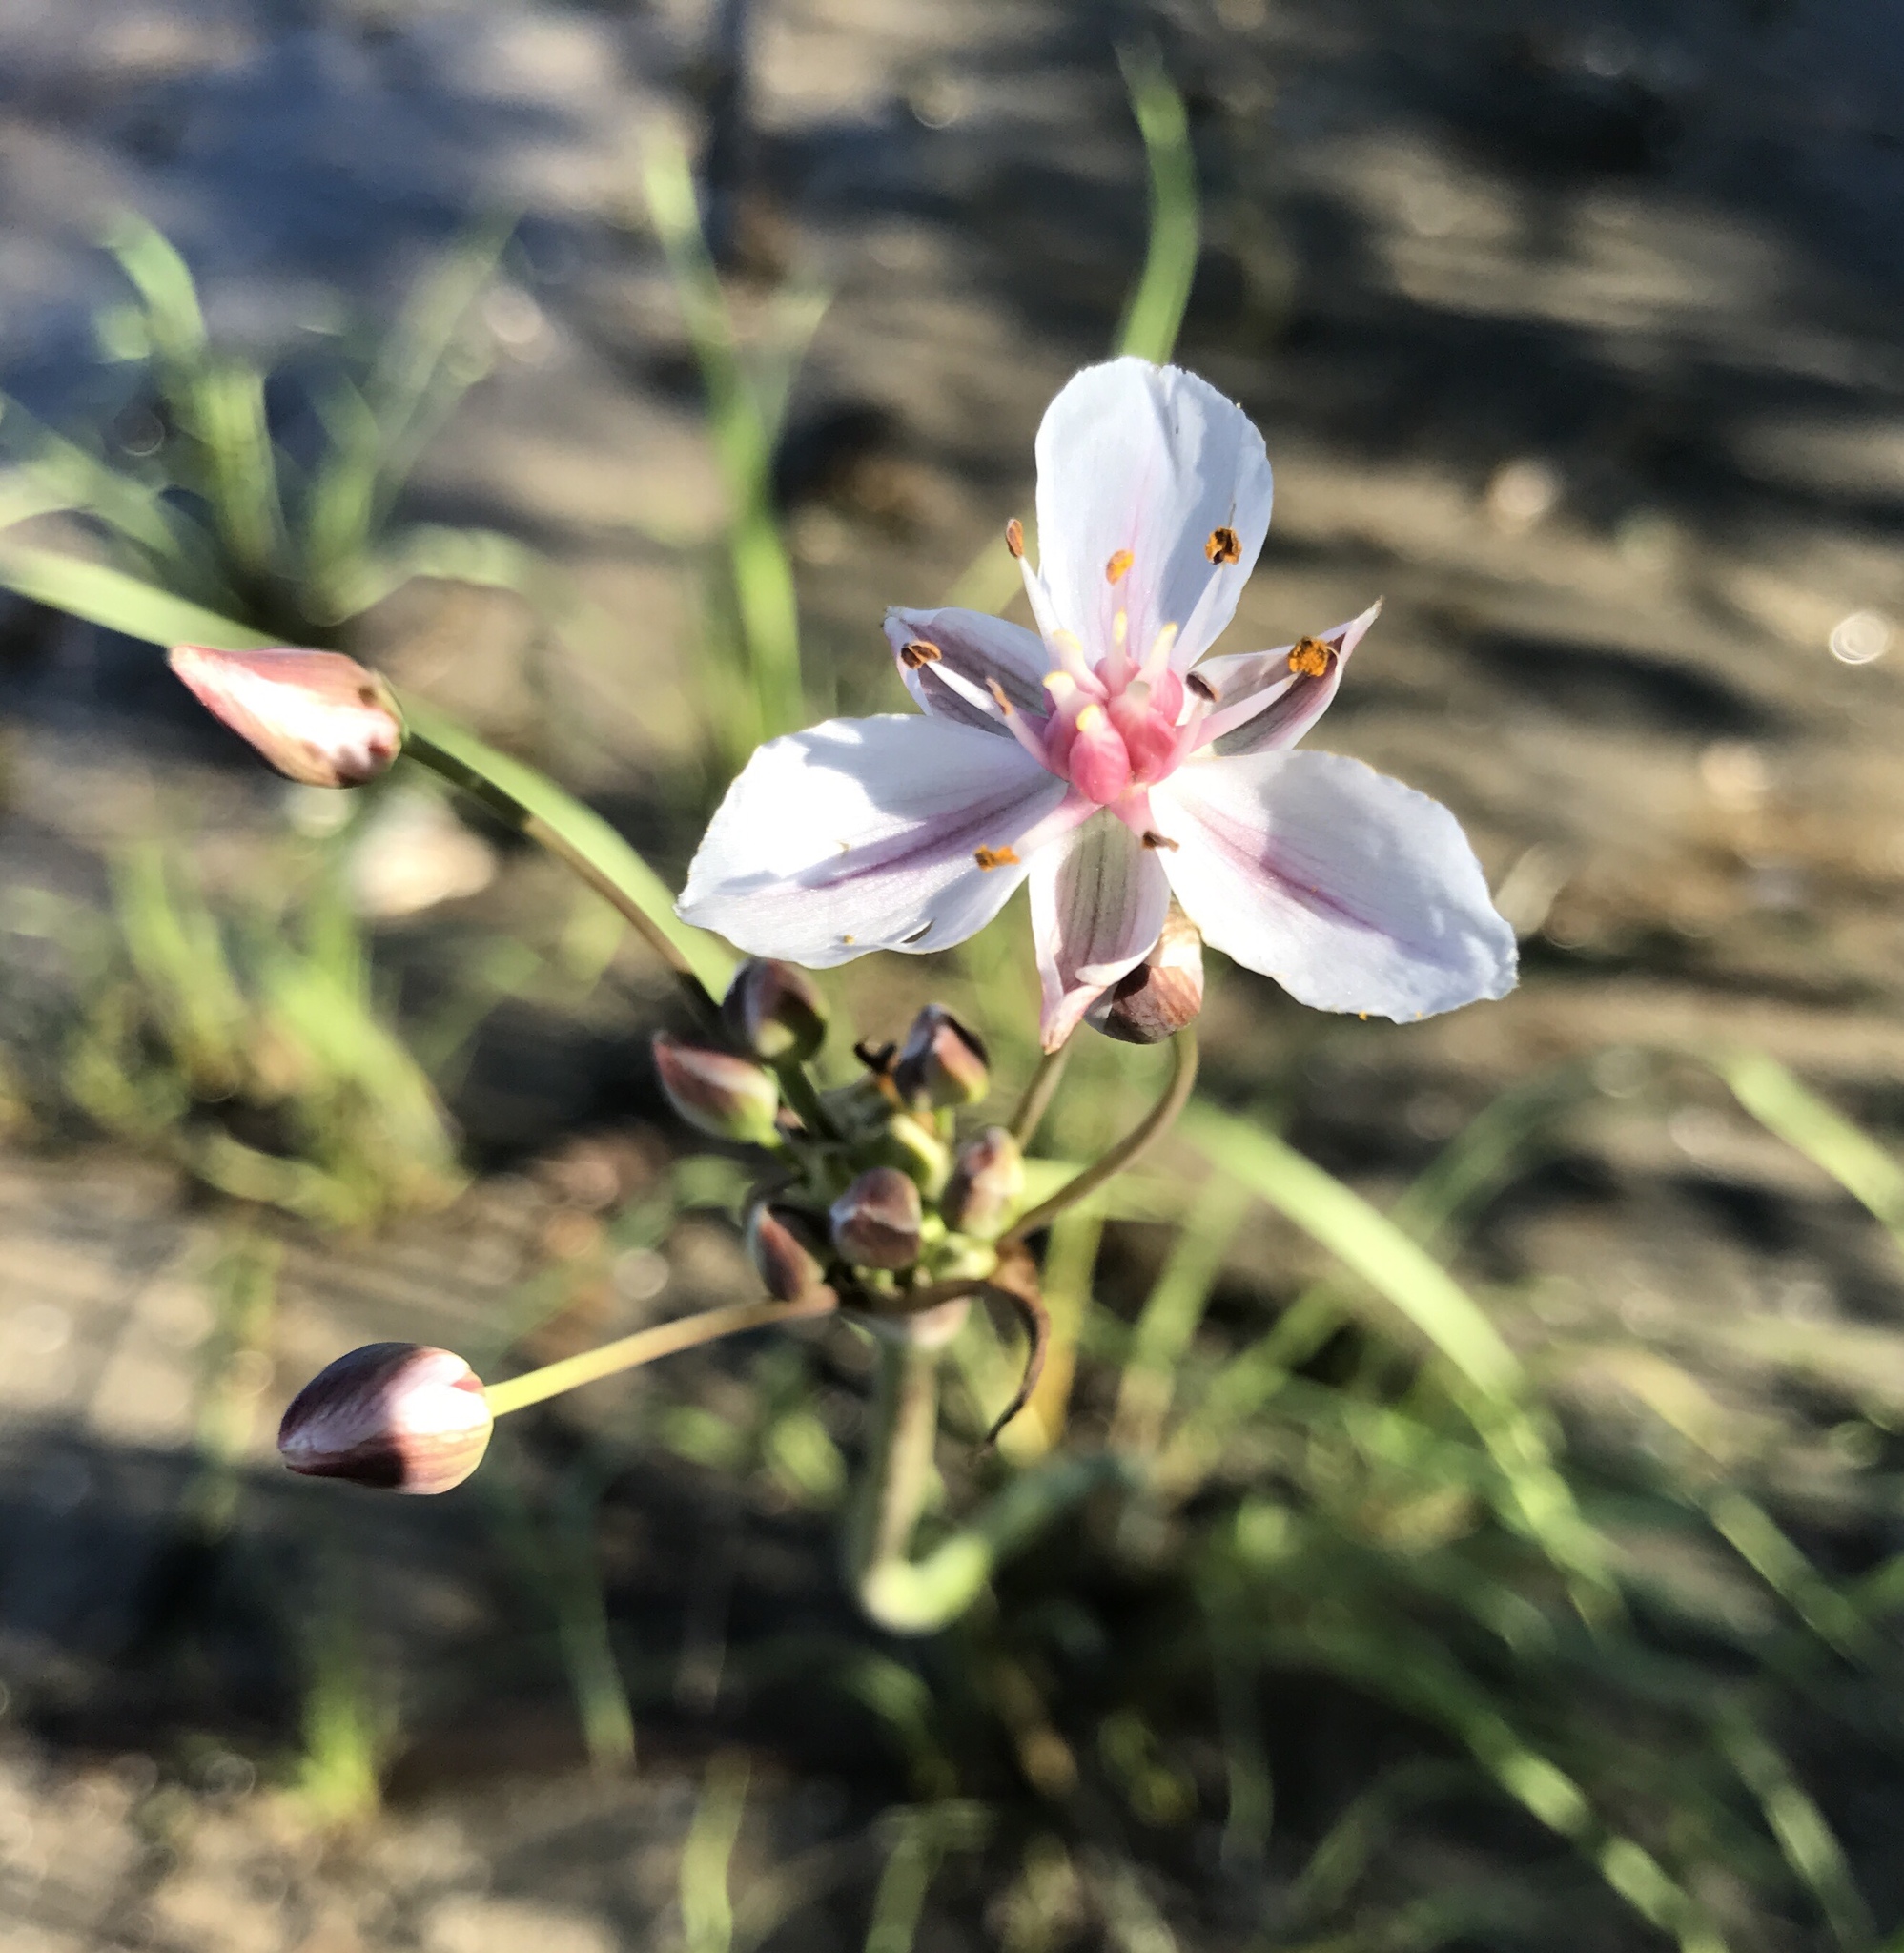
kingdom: Plantae
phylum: Tracheophyta
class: Liliopsida
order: Alismatales
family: Butomaceae
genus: Butomus
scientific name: Butomus umbellatus
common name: Flowering-rush
